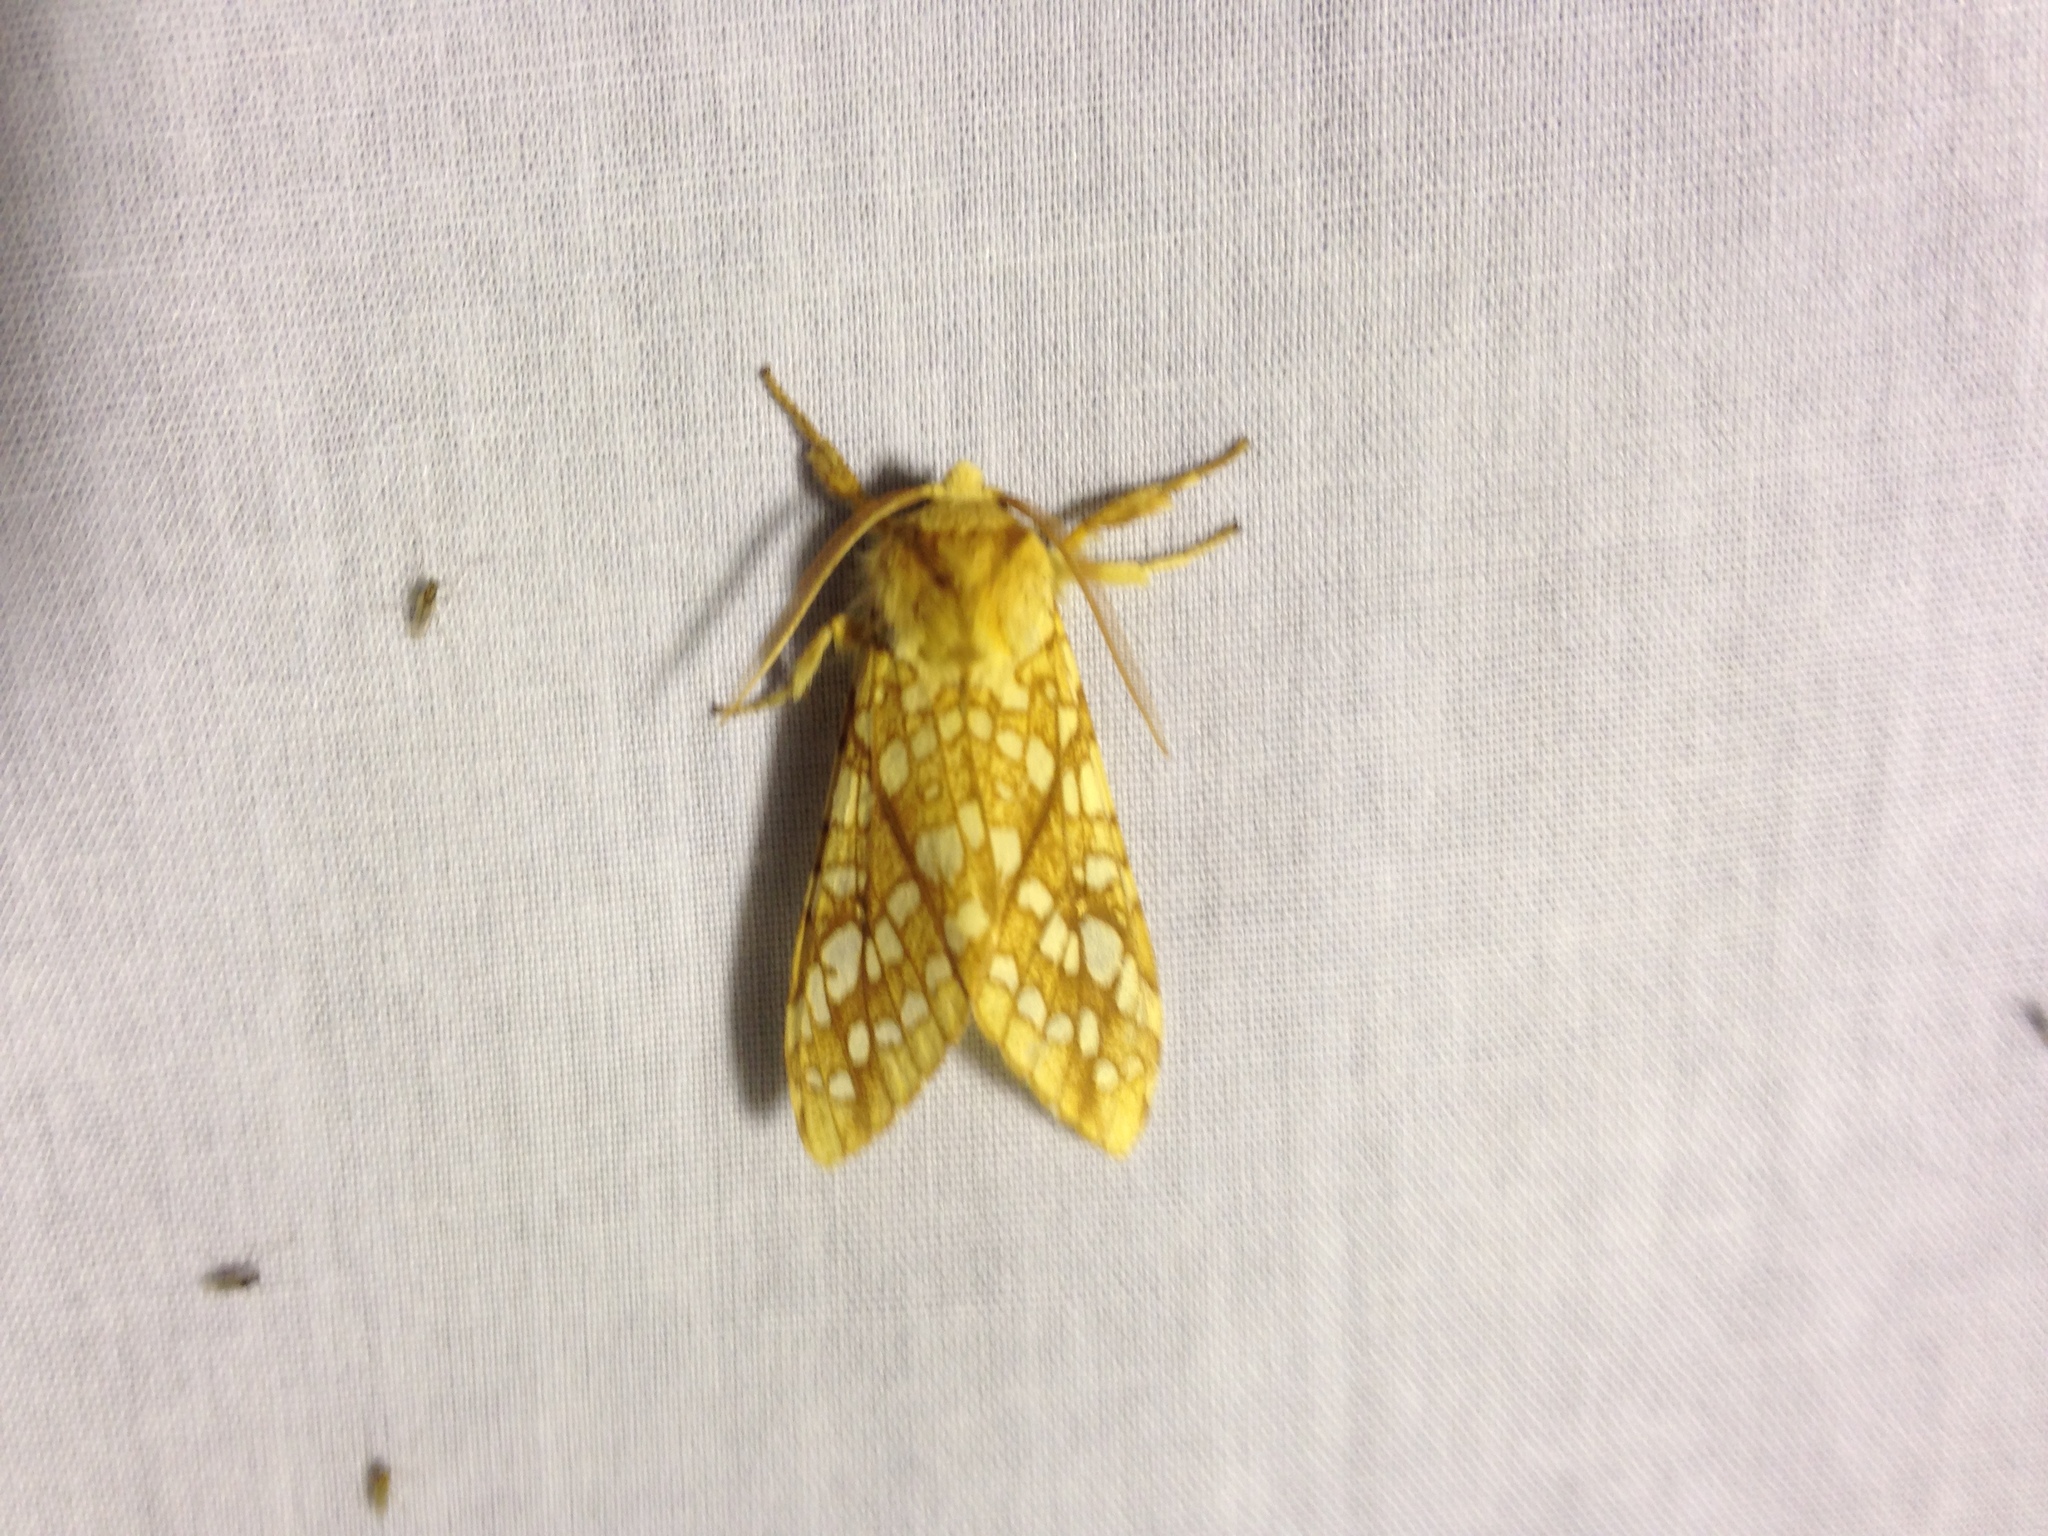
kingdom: Animalia
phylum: Arthropoda
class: Insecta
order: Lepidoptera
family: Erebidae
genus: Lophocampa
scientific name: Lophocampa caryae
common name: Hickory tussock moth
